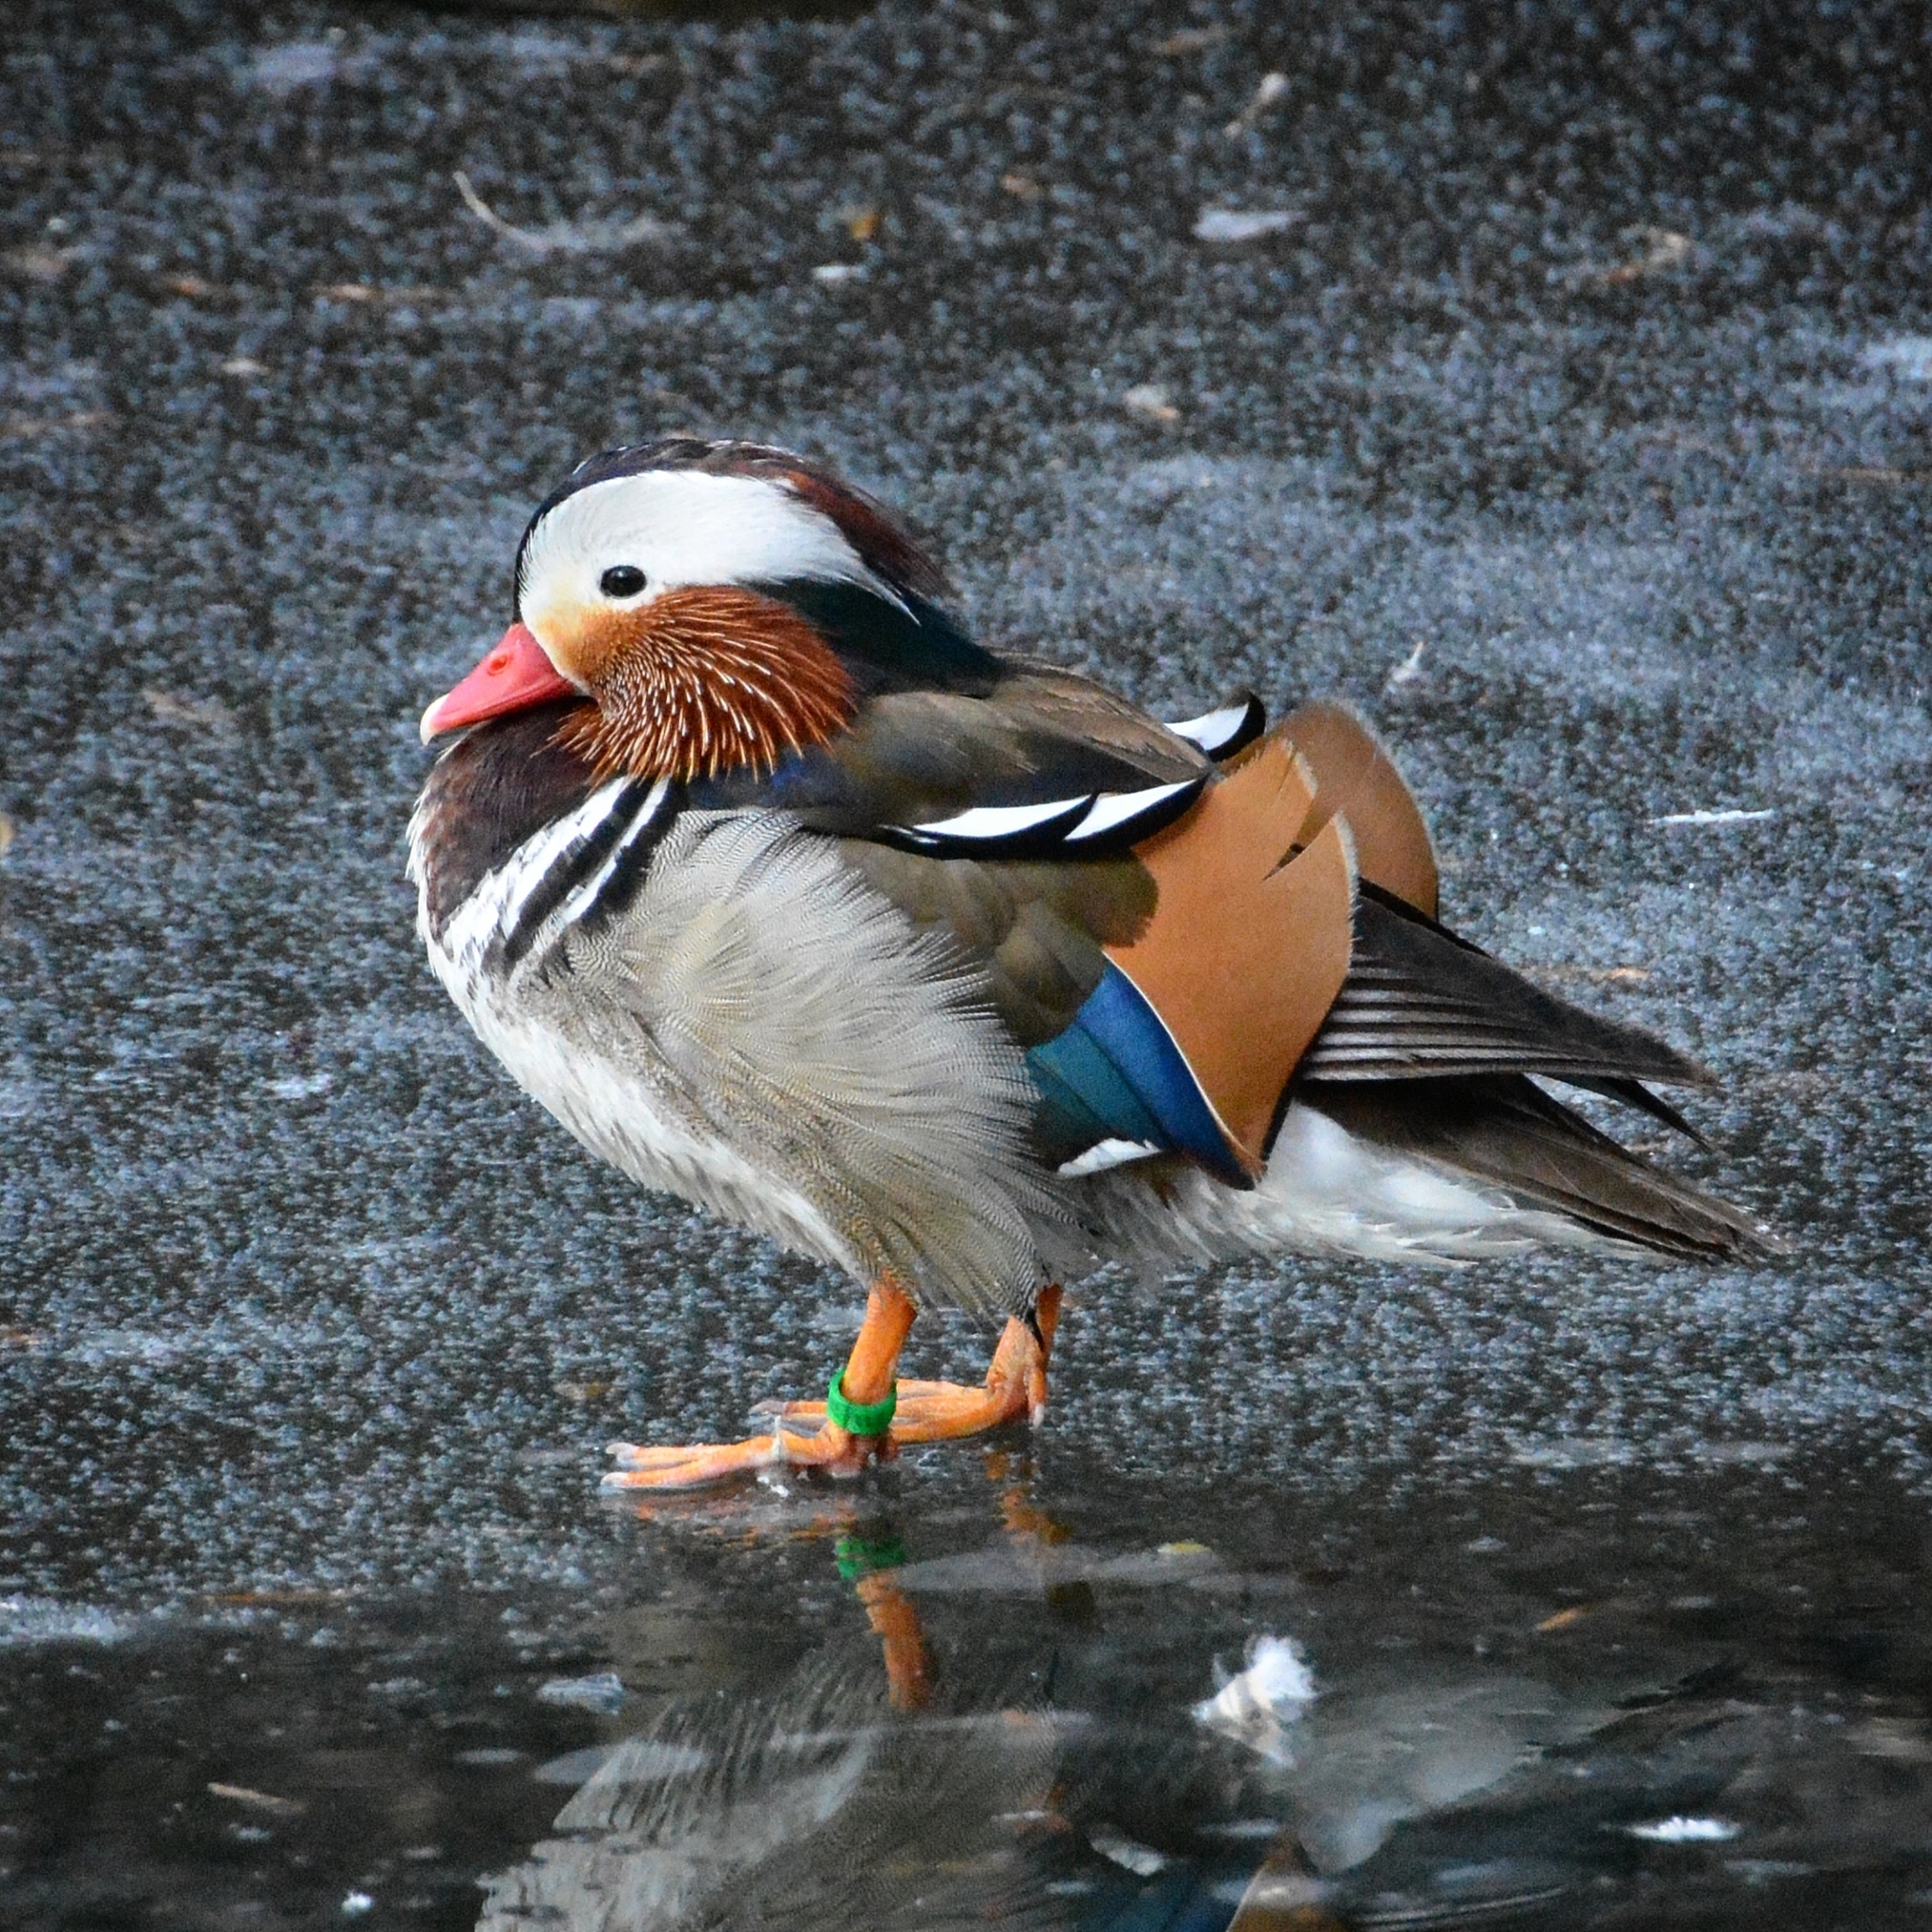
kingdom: Animalia
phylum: Chordata
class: Aves
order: Anseriformes
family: Anatidae
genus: Aix
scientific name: Aix galericulata
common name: Mandarin duck
